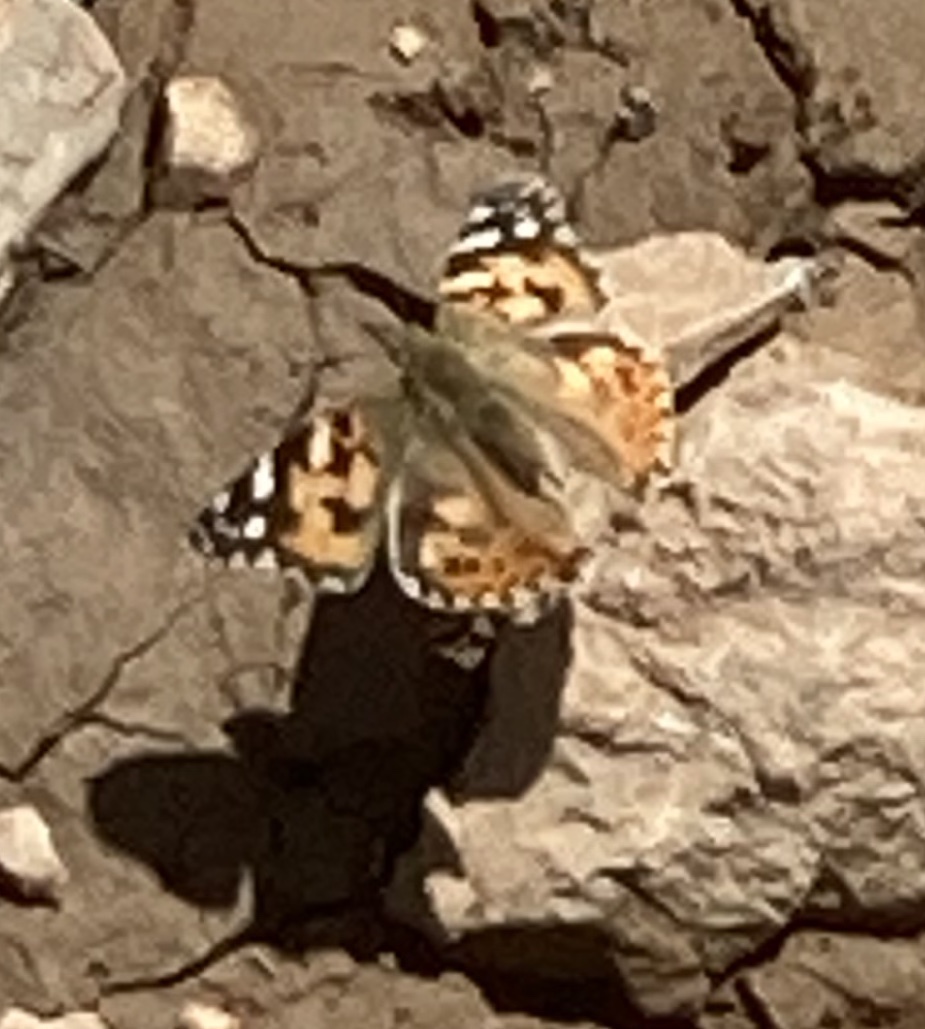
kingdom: Animalia
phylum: Arthropoda
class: Insecta
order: Lepidoptera
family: Nymphalidae
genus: Vanessa
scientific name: Vanessa cardui
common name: Painted lady
